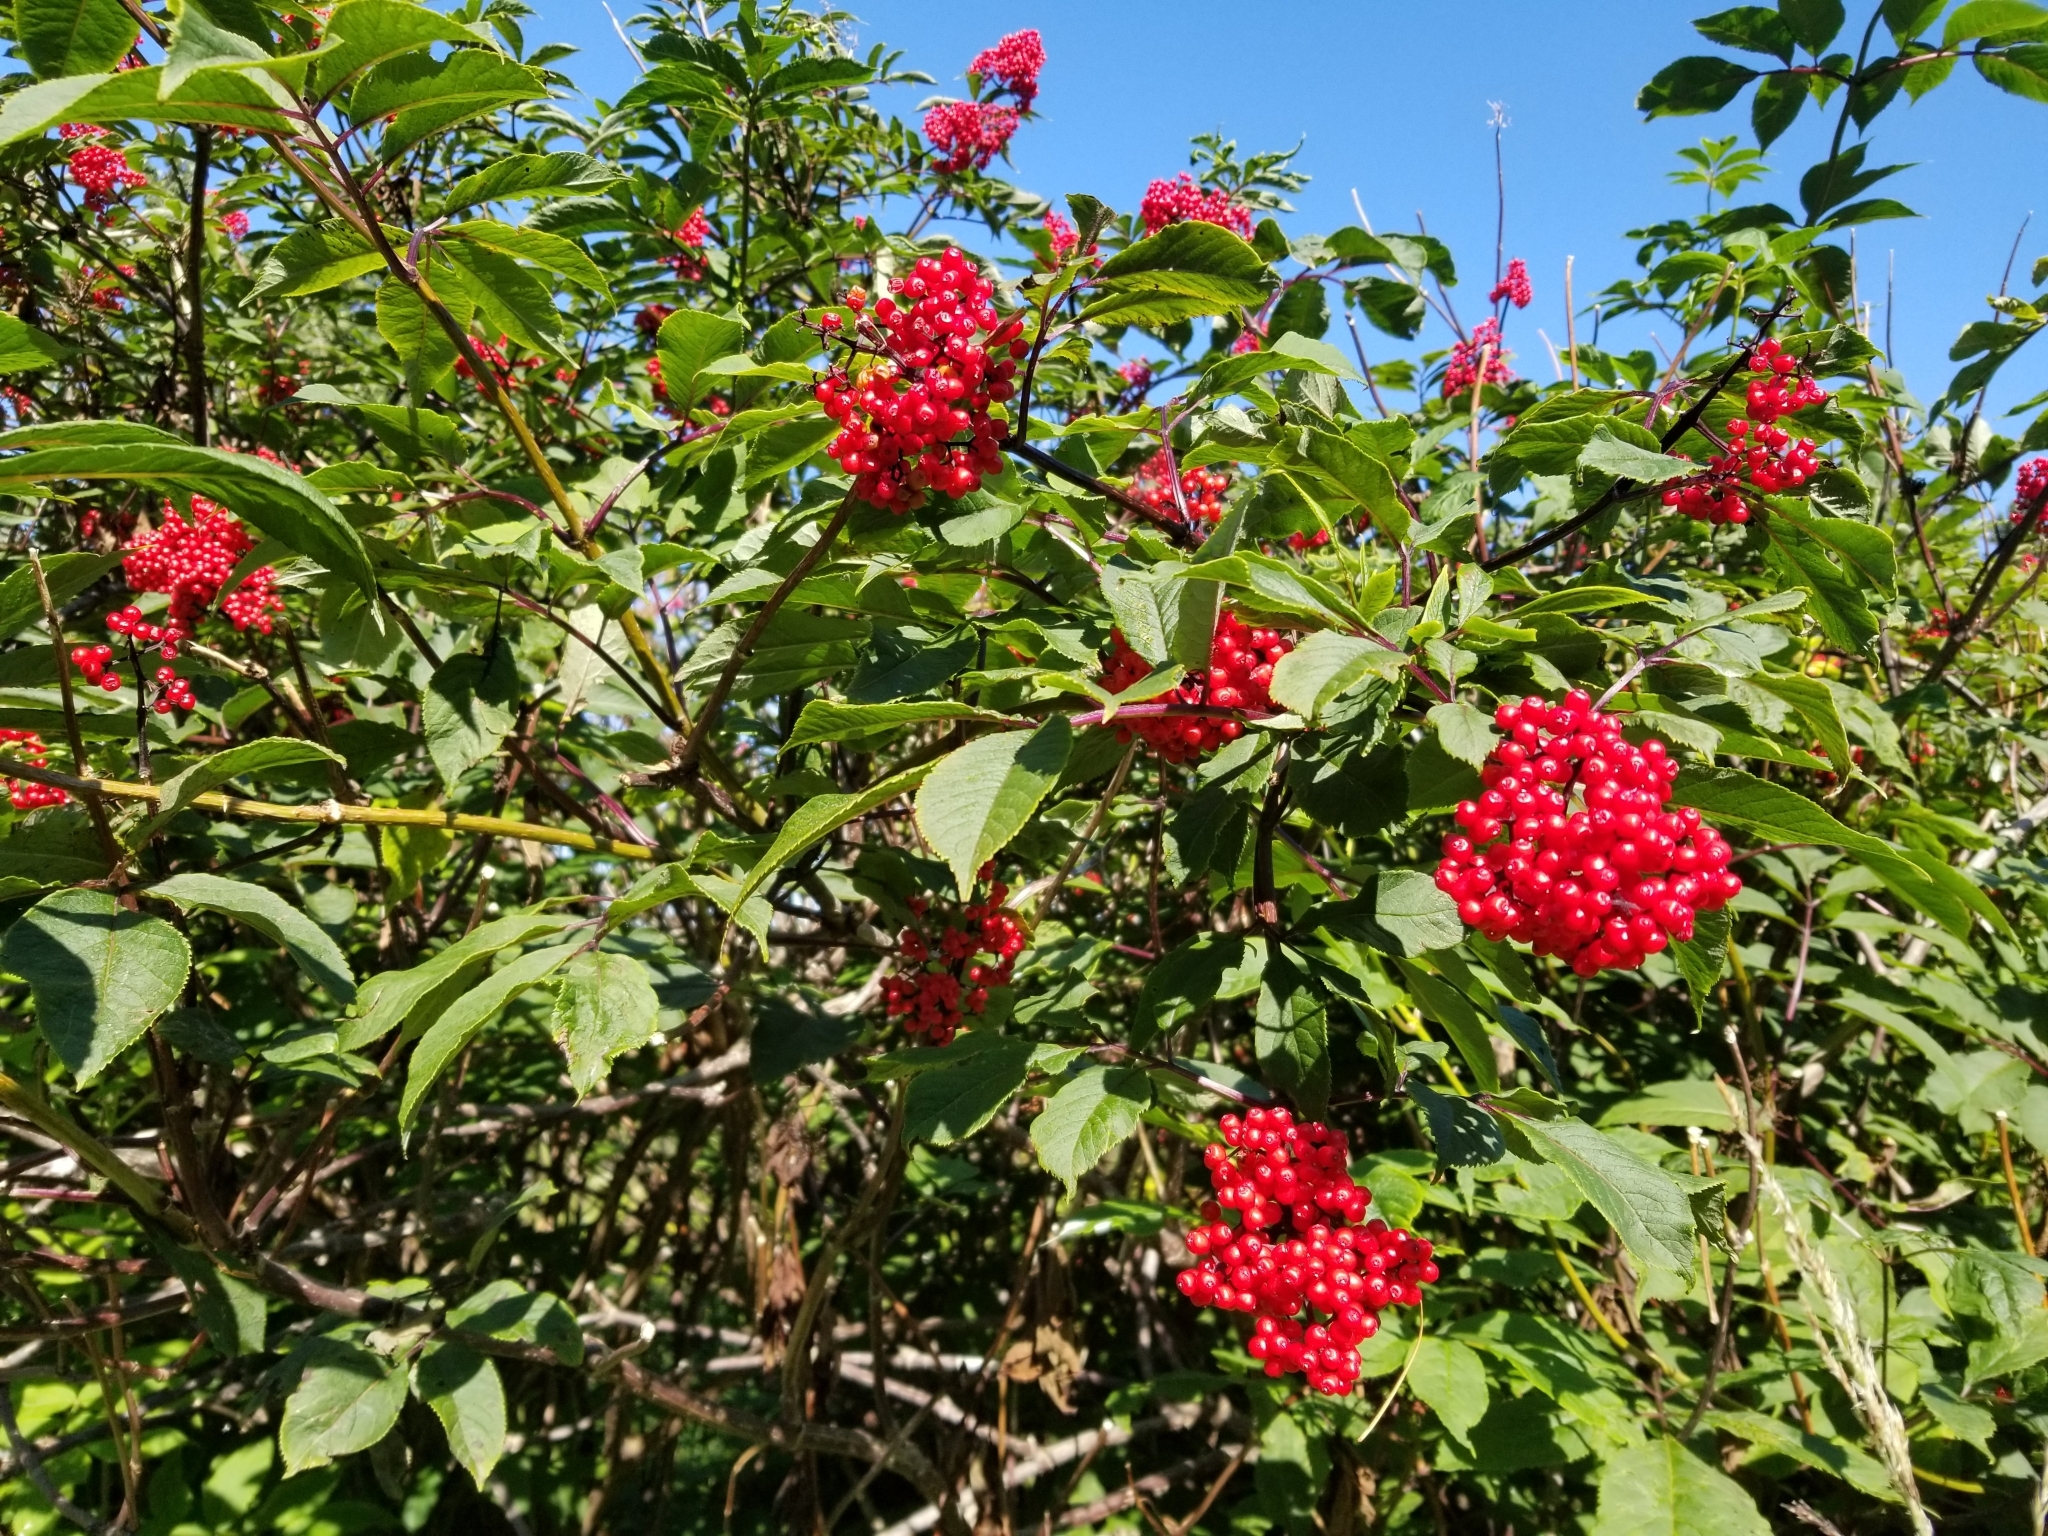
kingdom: Plantae
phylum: Tracheophyta
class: Magnoliopsida
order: Dipsacales
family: Viburnaceae
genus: Sambucus
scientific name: Sambucus racemosa
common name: Red-berried elder
